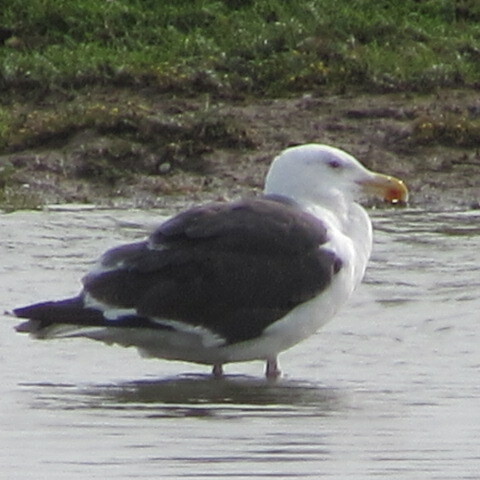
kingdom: Animalia
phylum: Chordata
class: Aves
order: Charadriiformes
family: Laridae
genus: Larus
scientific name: Larus marinus
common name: Great black-backed gull
